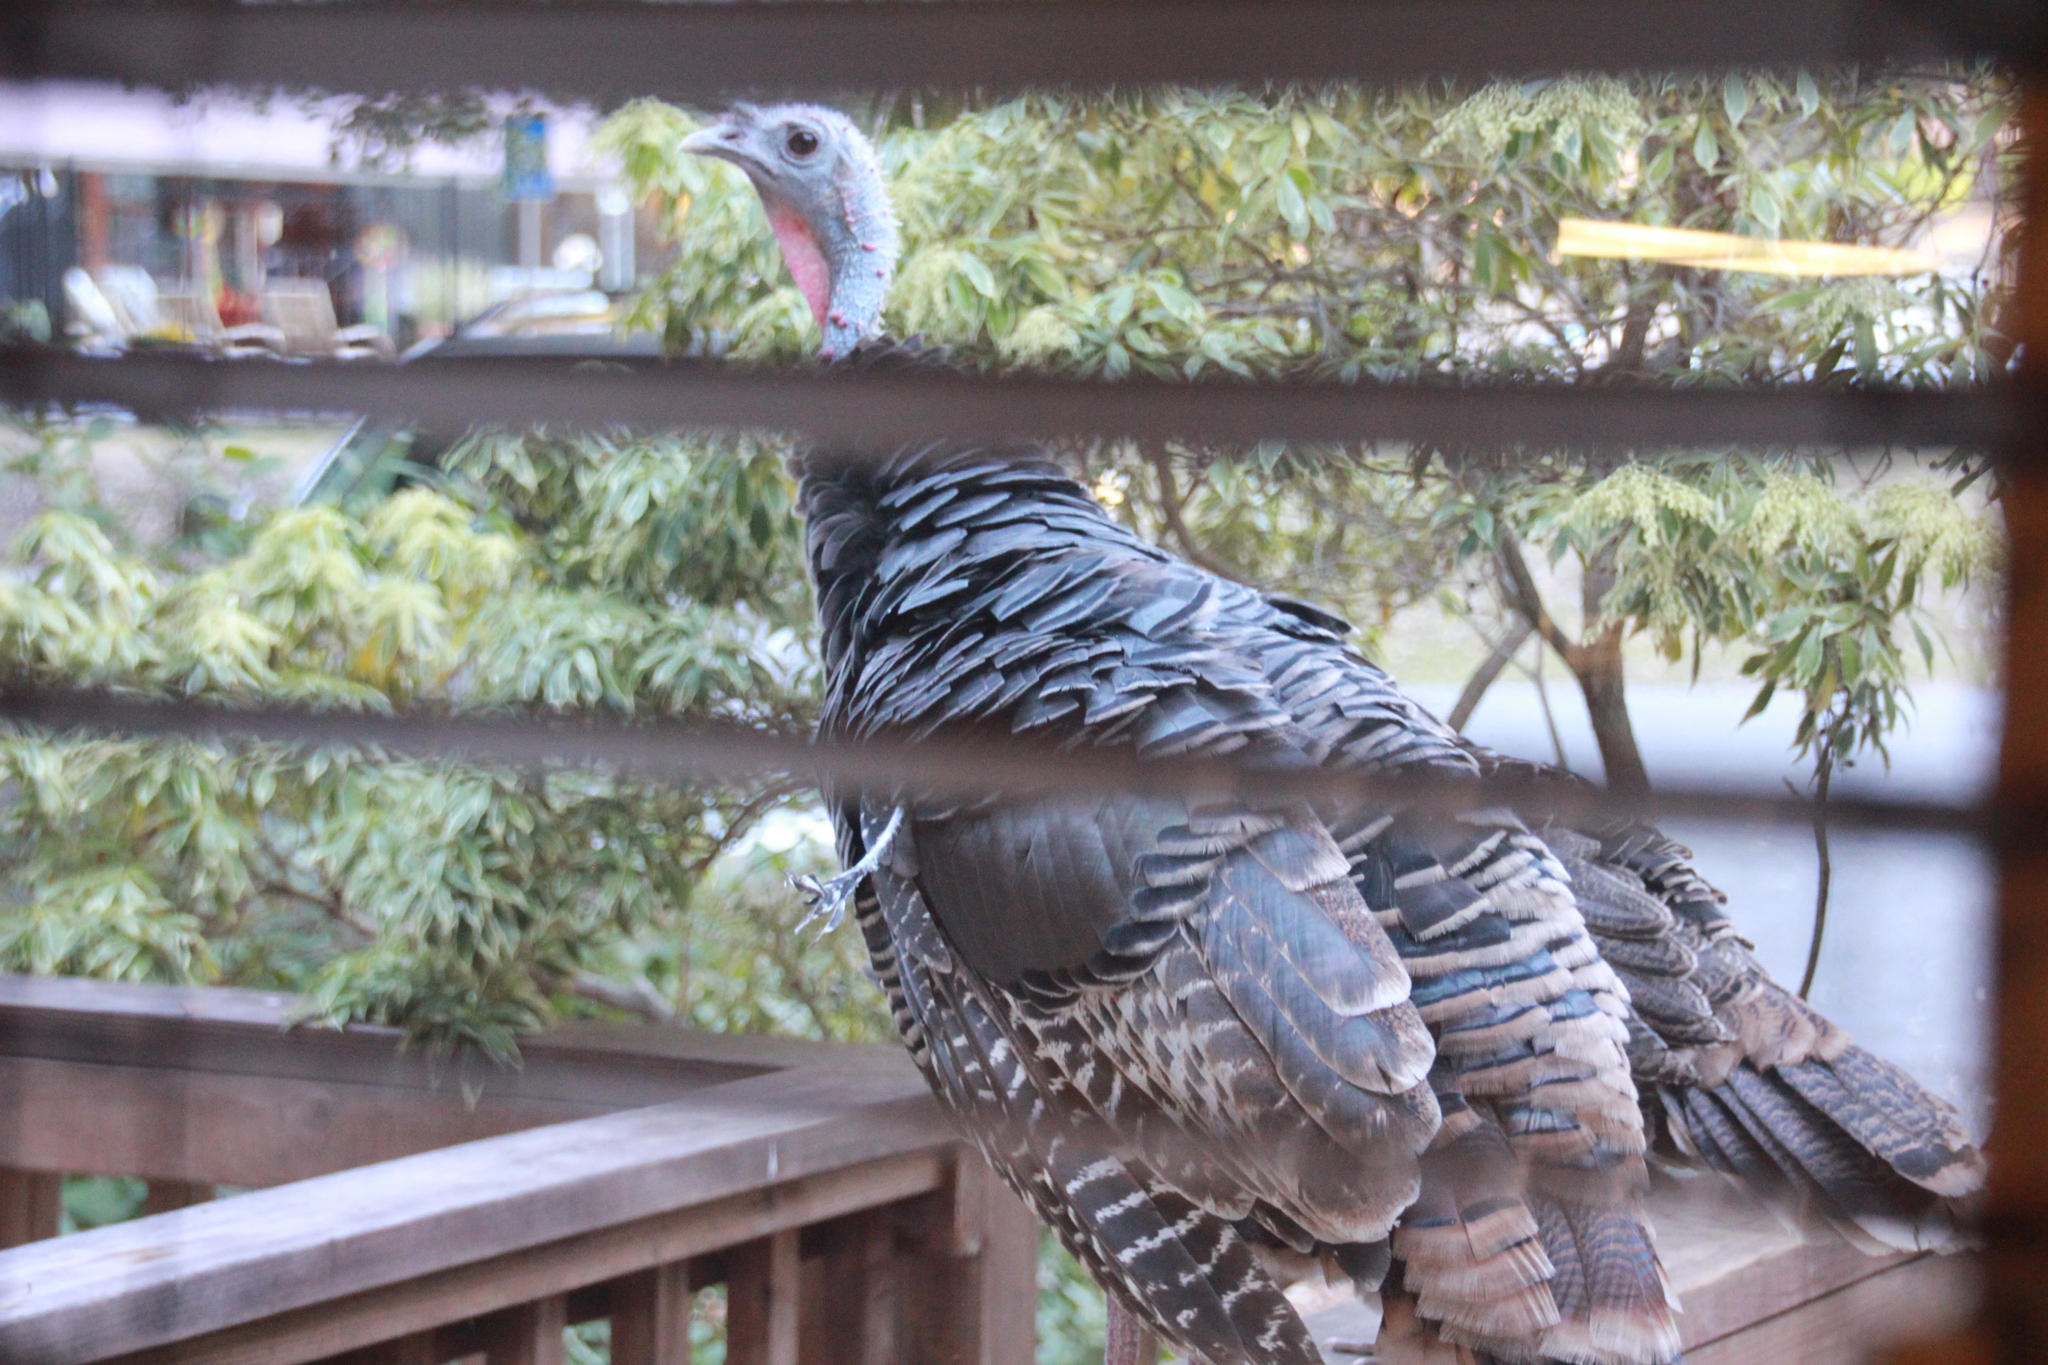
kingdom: Animalia
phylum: Chordata
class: Aves
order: Galliformes
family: Phasianidae
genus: Meleagris
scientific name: Meleagris gallopavo
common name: Wild turkey
